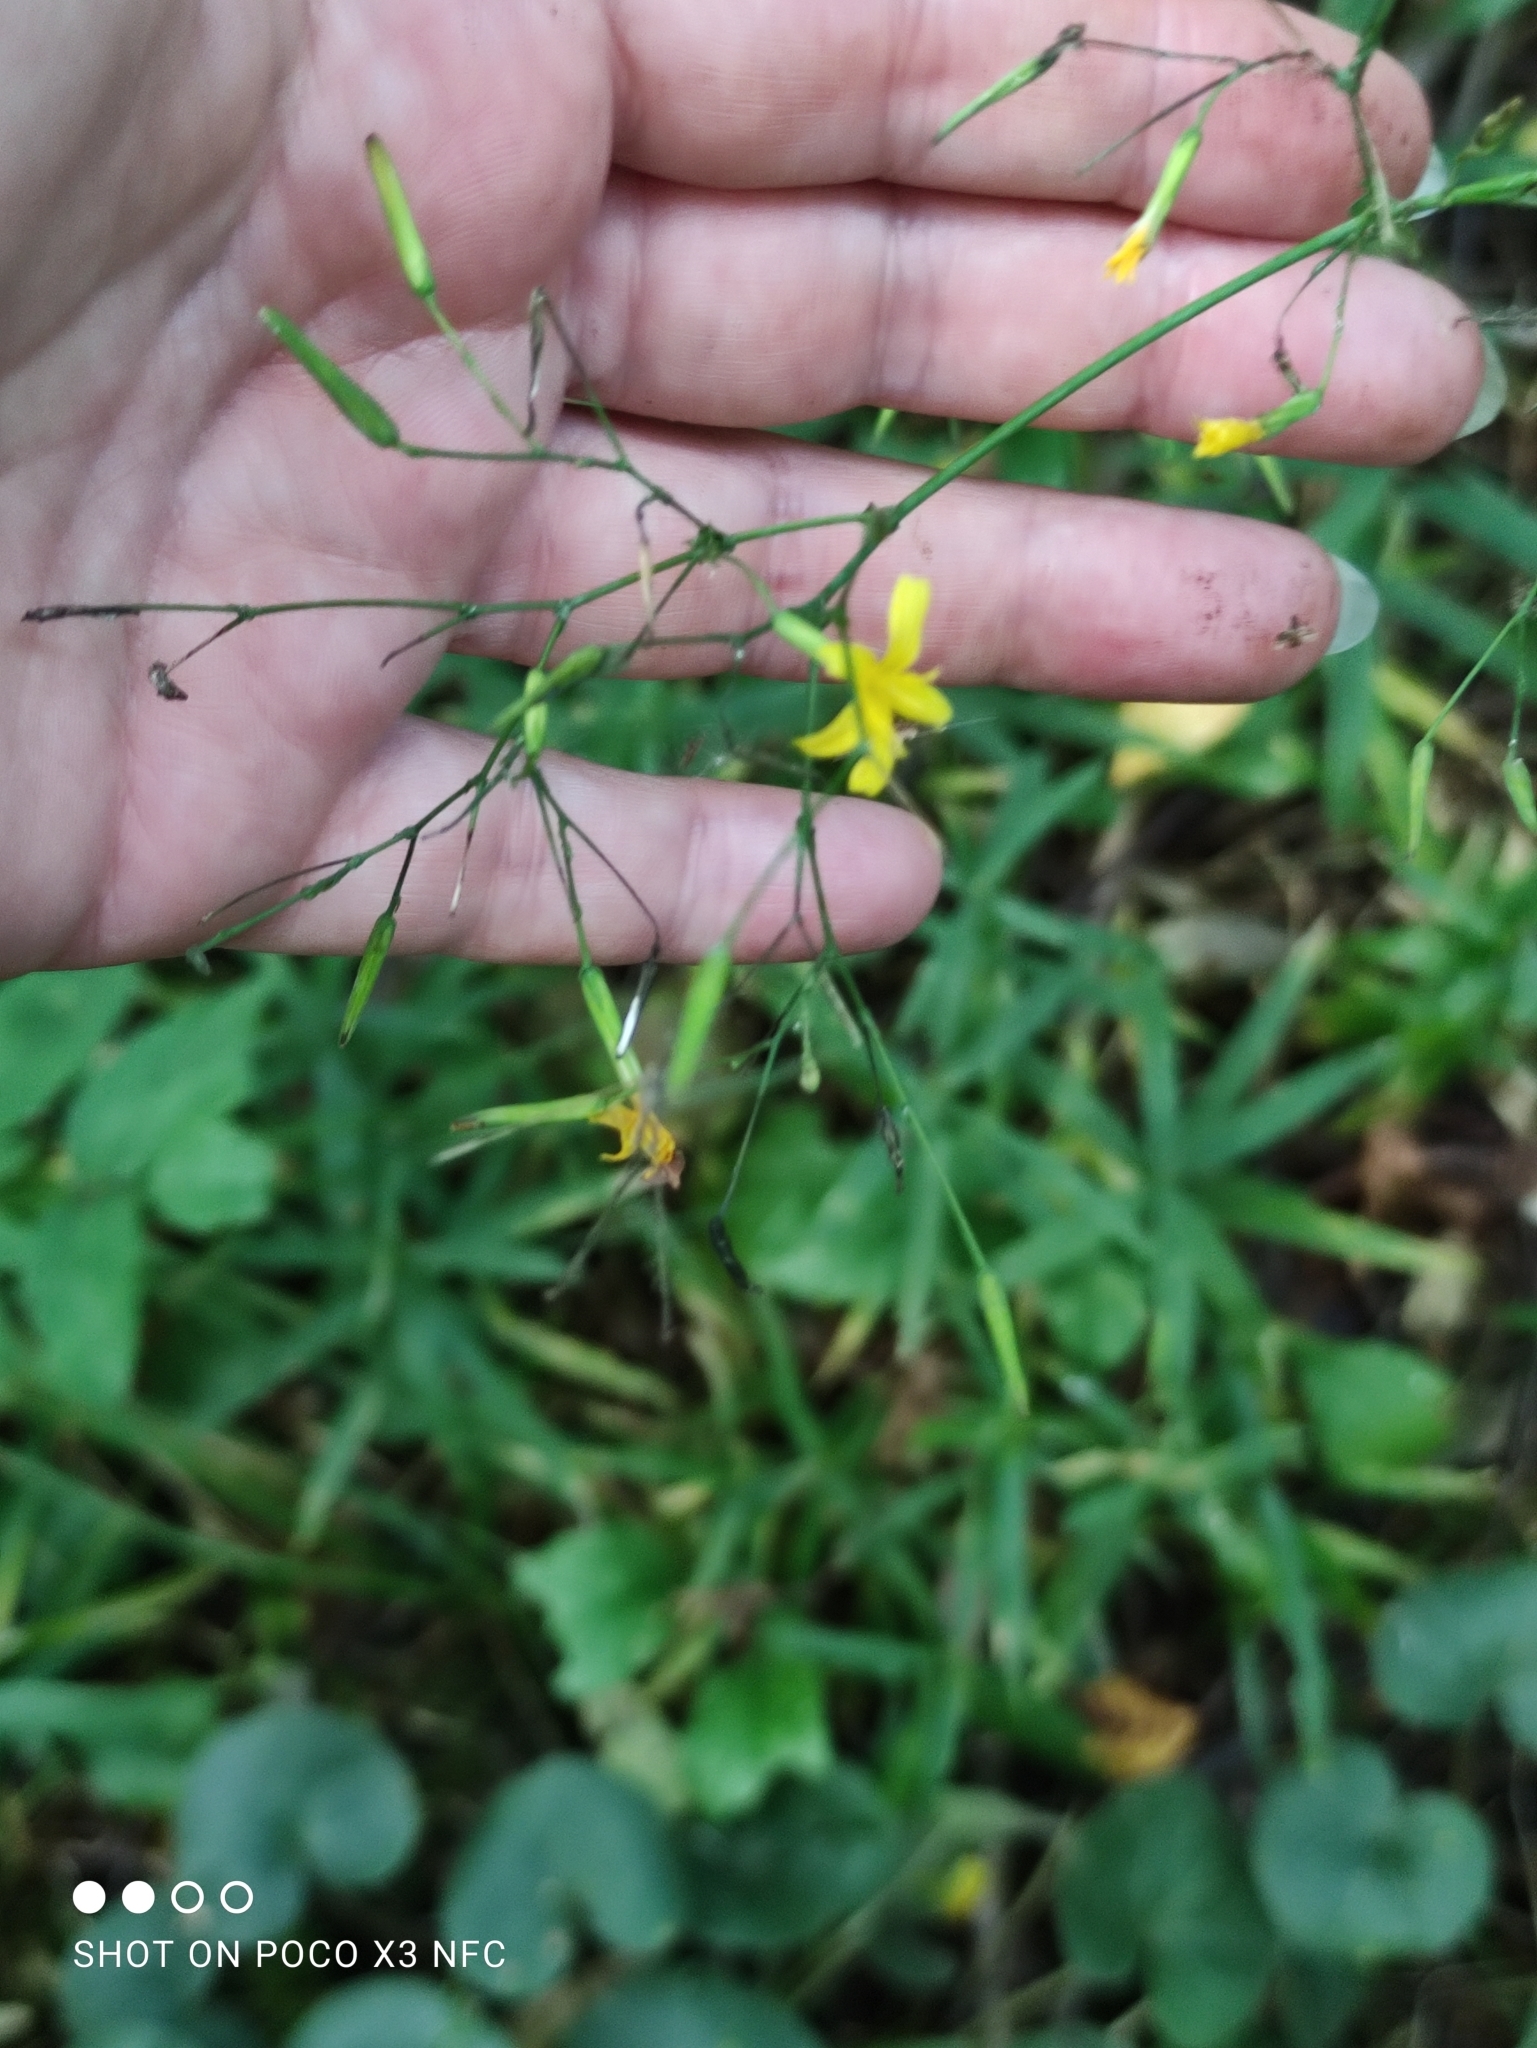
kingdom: Plantae
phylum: Tracheophyta
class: Magnoliopsida
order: Asterales
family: Asteraceae
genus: Mycelis
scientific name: Mycelis muralis
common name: Wall lettuce
